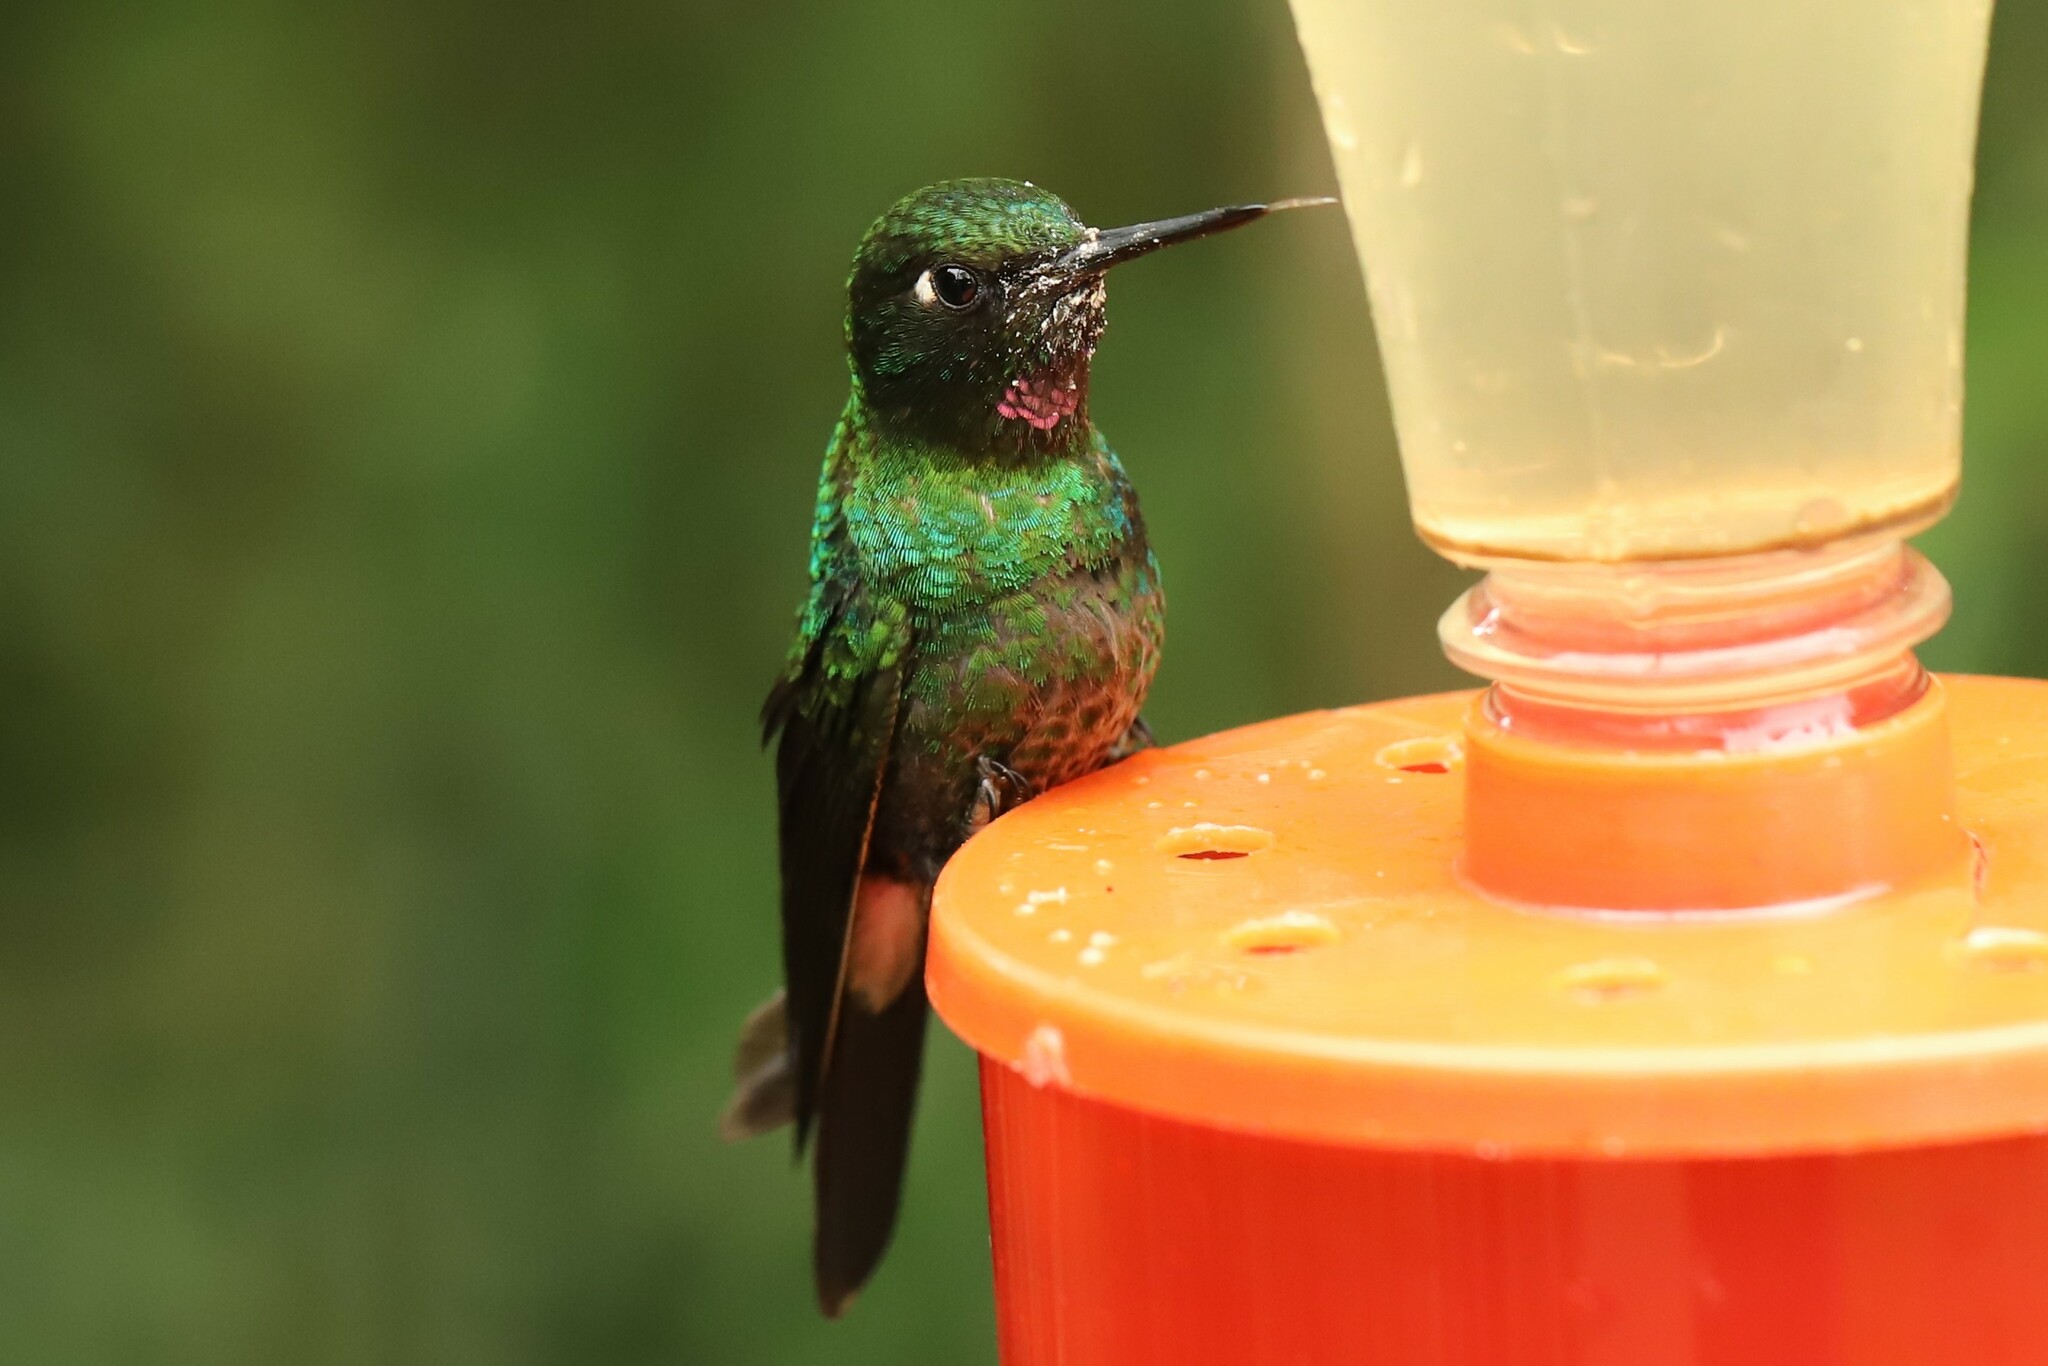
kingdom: Animalia
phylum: Chordata
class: Aves
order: Apodiformes
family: Trochilidae
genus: Heliangelus
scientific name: Heliangelus exortis
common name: Tourmaline sunangel
